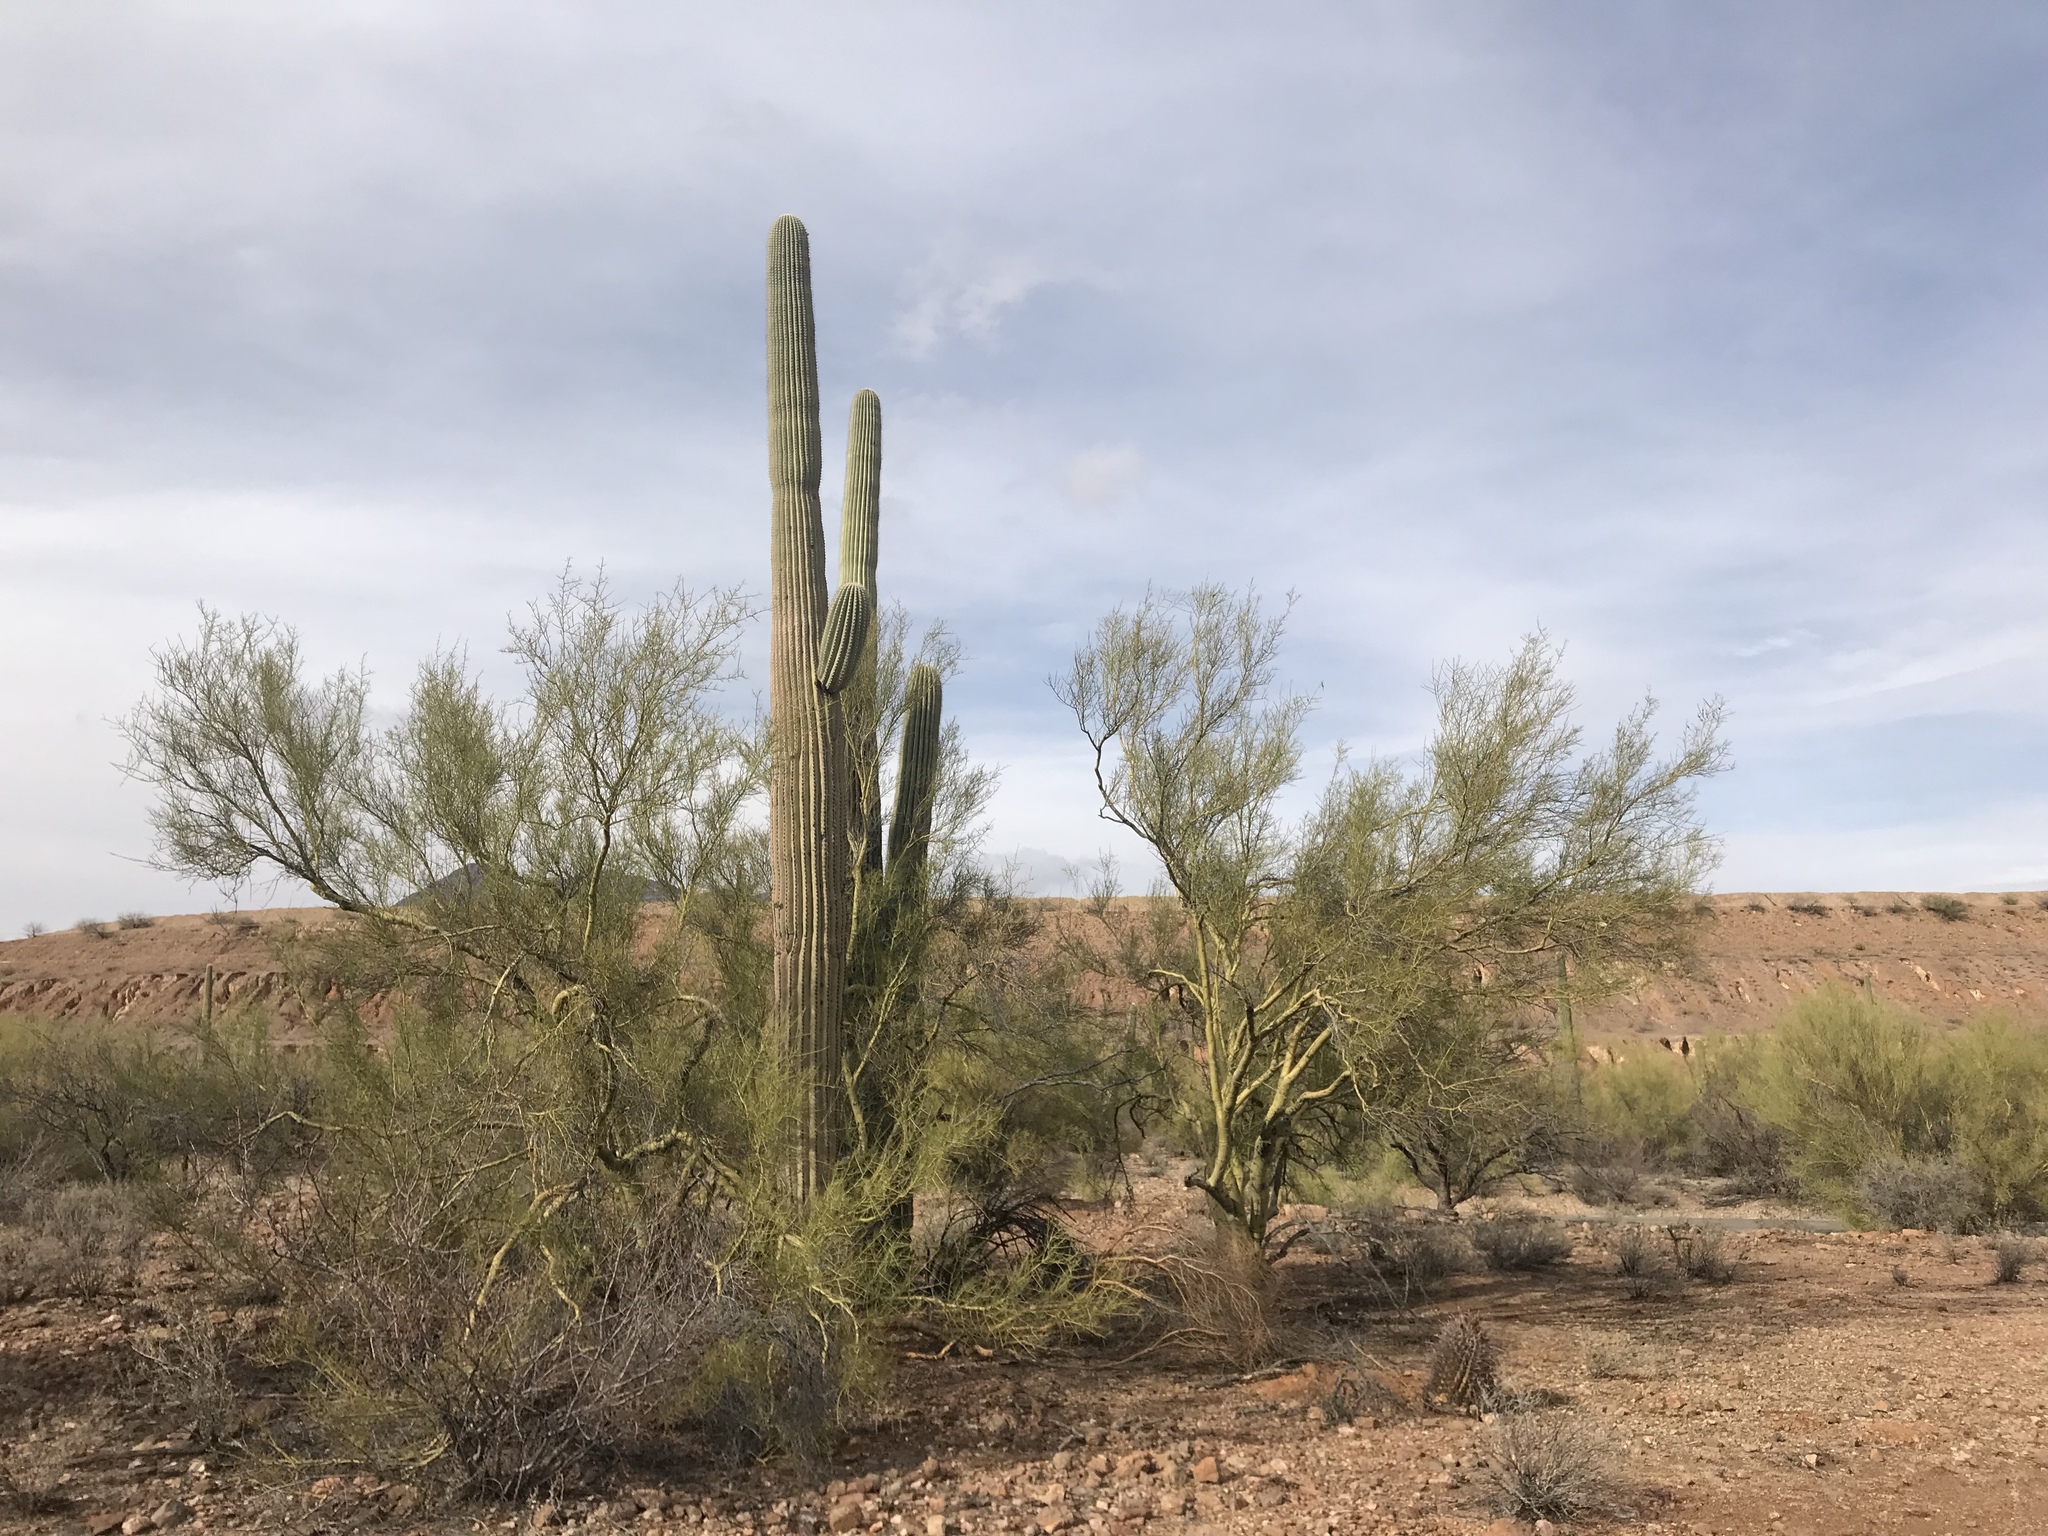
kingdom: Plantae
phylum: Tracheophyta
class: Magnoliopsida
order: Caryophyllales
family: Cactaceae
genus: Carnegiea
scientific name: Carnegiea gigantea
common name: Saguaro
